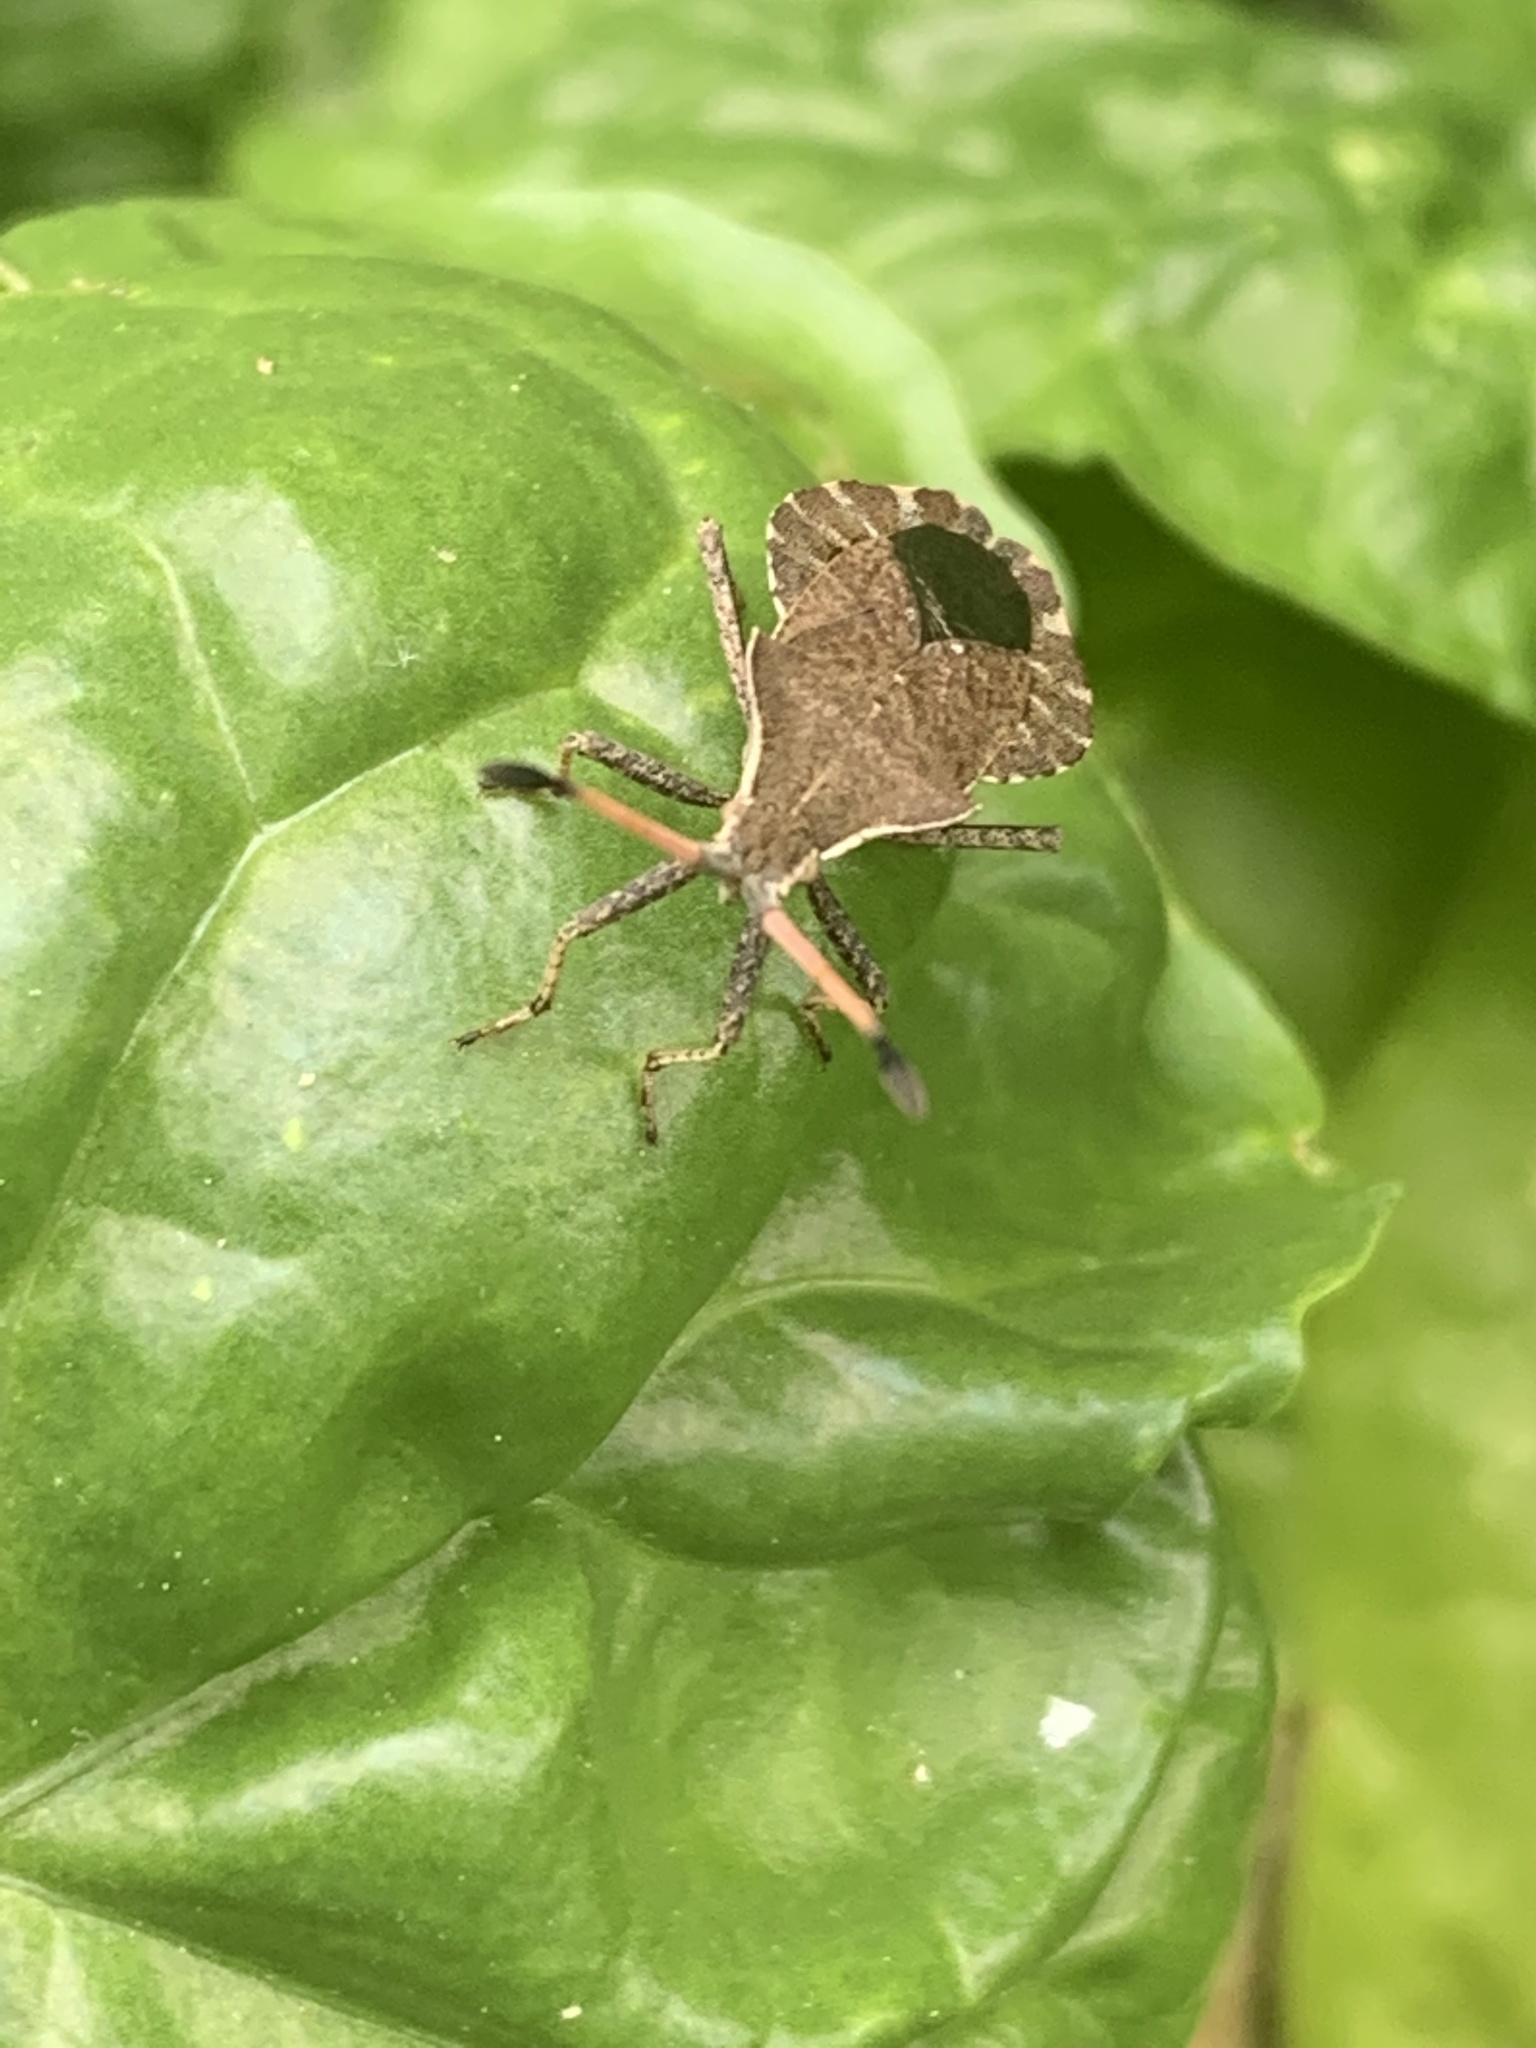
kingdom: Animalia
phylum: Arthropoda
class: Insecta
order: Hemiptera
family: Coreidae
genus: Enoplops
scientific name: Enoplops scapha
